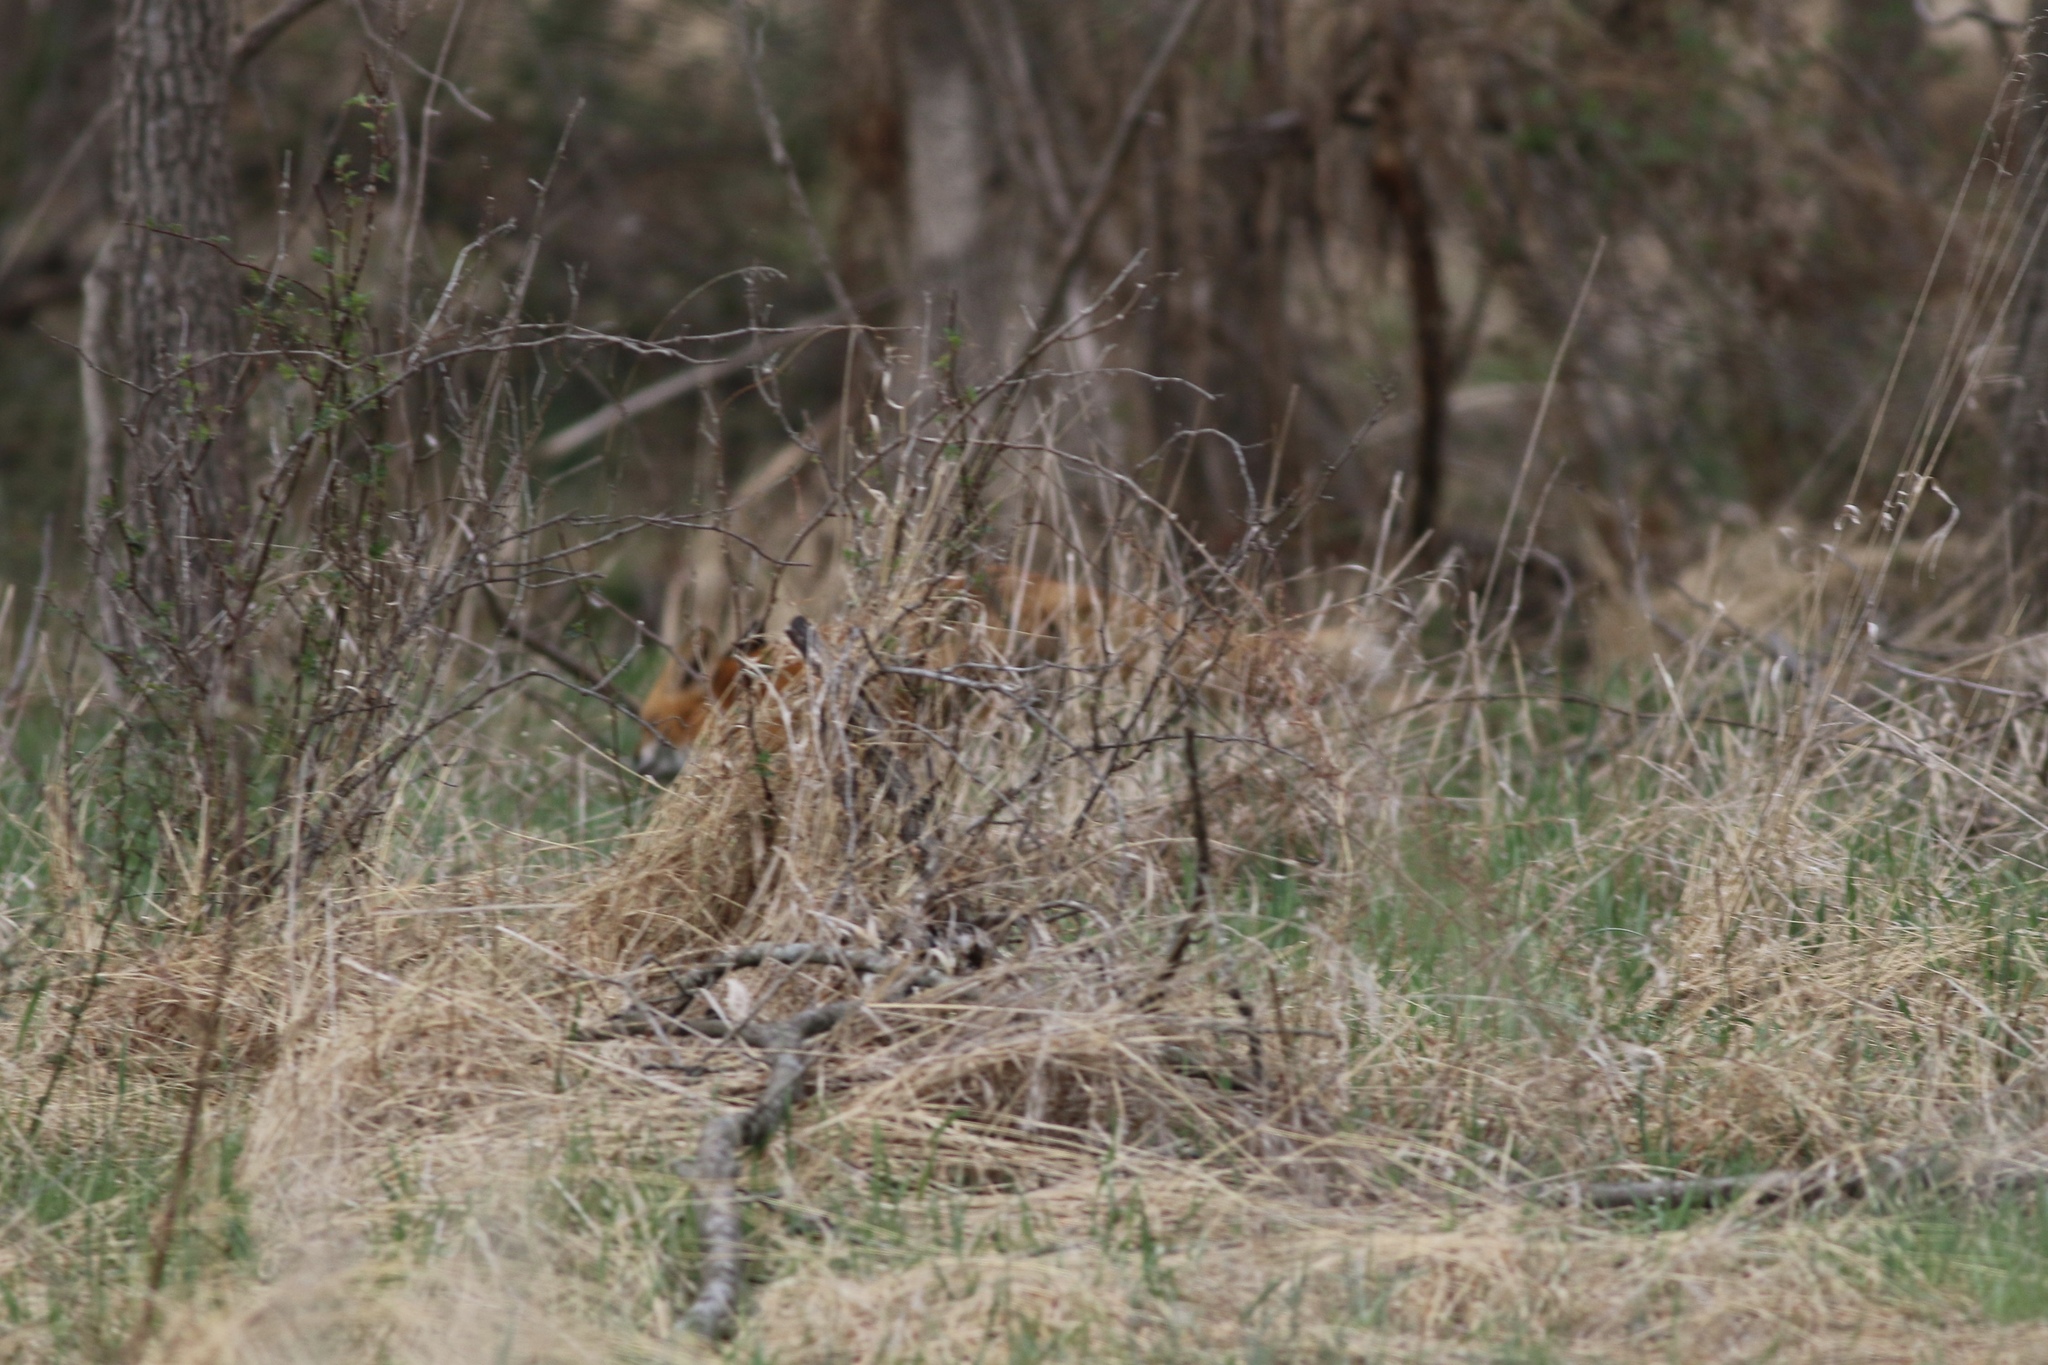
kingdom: Animalia
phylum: Chordata
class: Mammalia
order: Carnivora
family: Canidae
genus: Vulpes
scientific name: Vulpes vulpes
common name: Red fox
